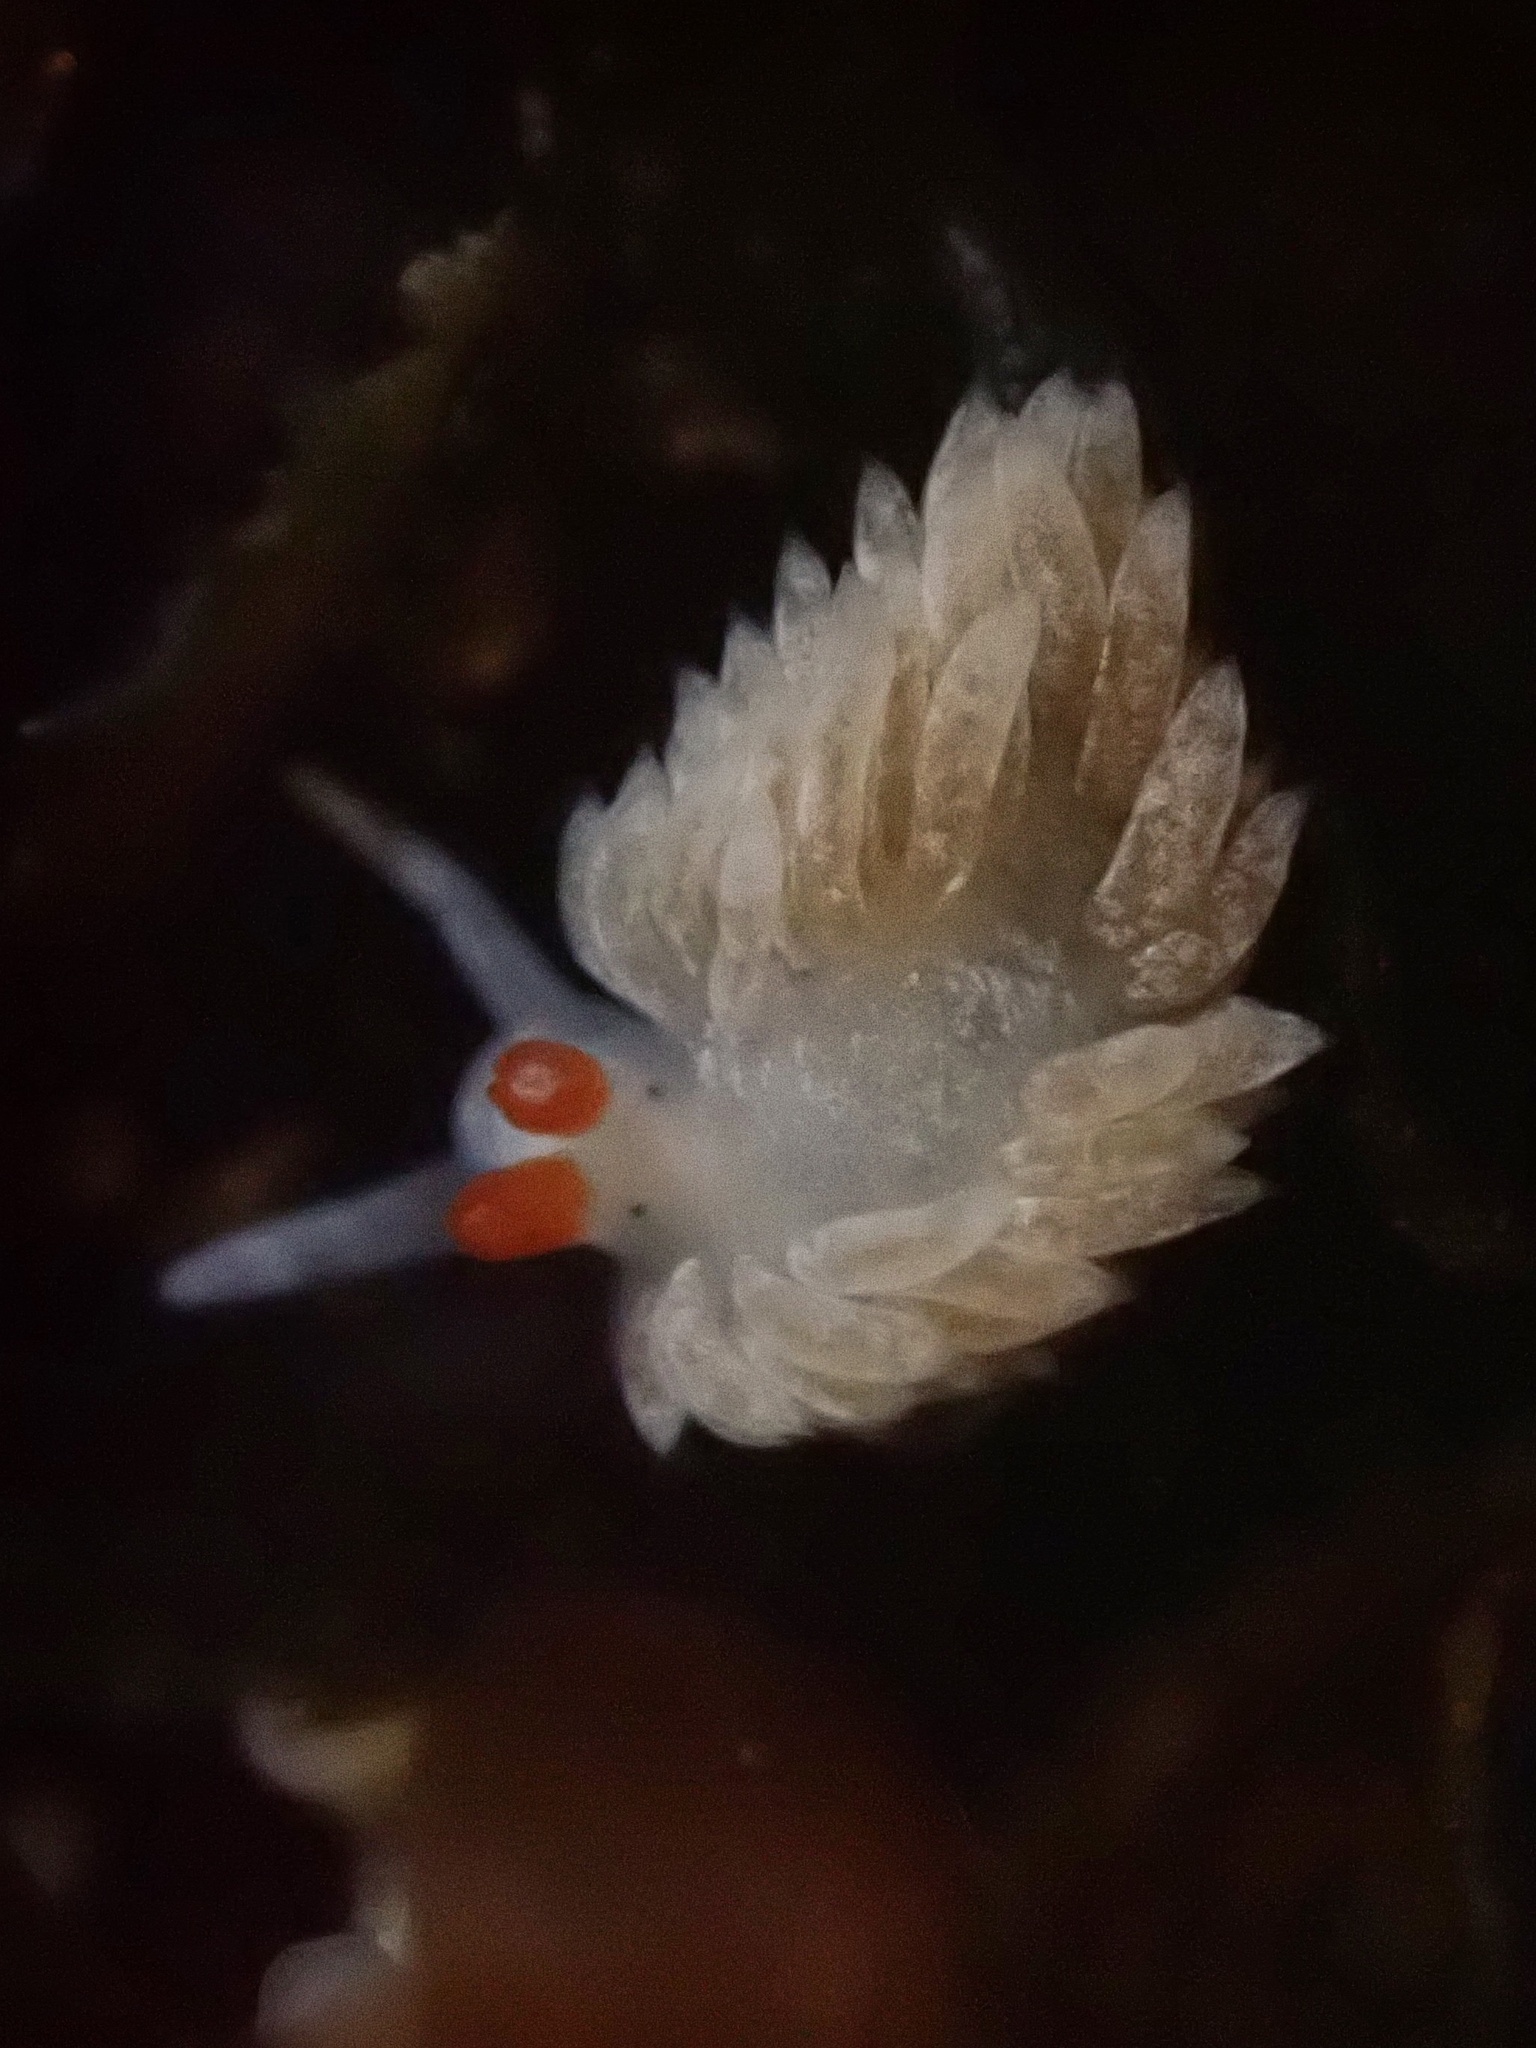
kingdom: Animalia
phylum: Mollusca
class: Gastropoda
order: Nudibranchia
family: Aeolidiidae
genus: Anteaeolidiella
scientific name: Anteaeolidiella oliviae
